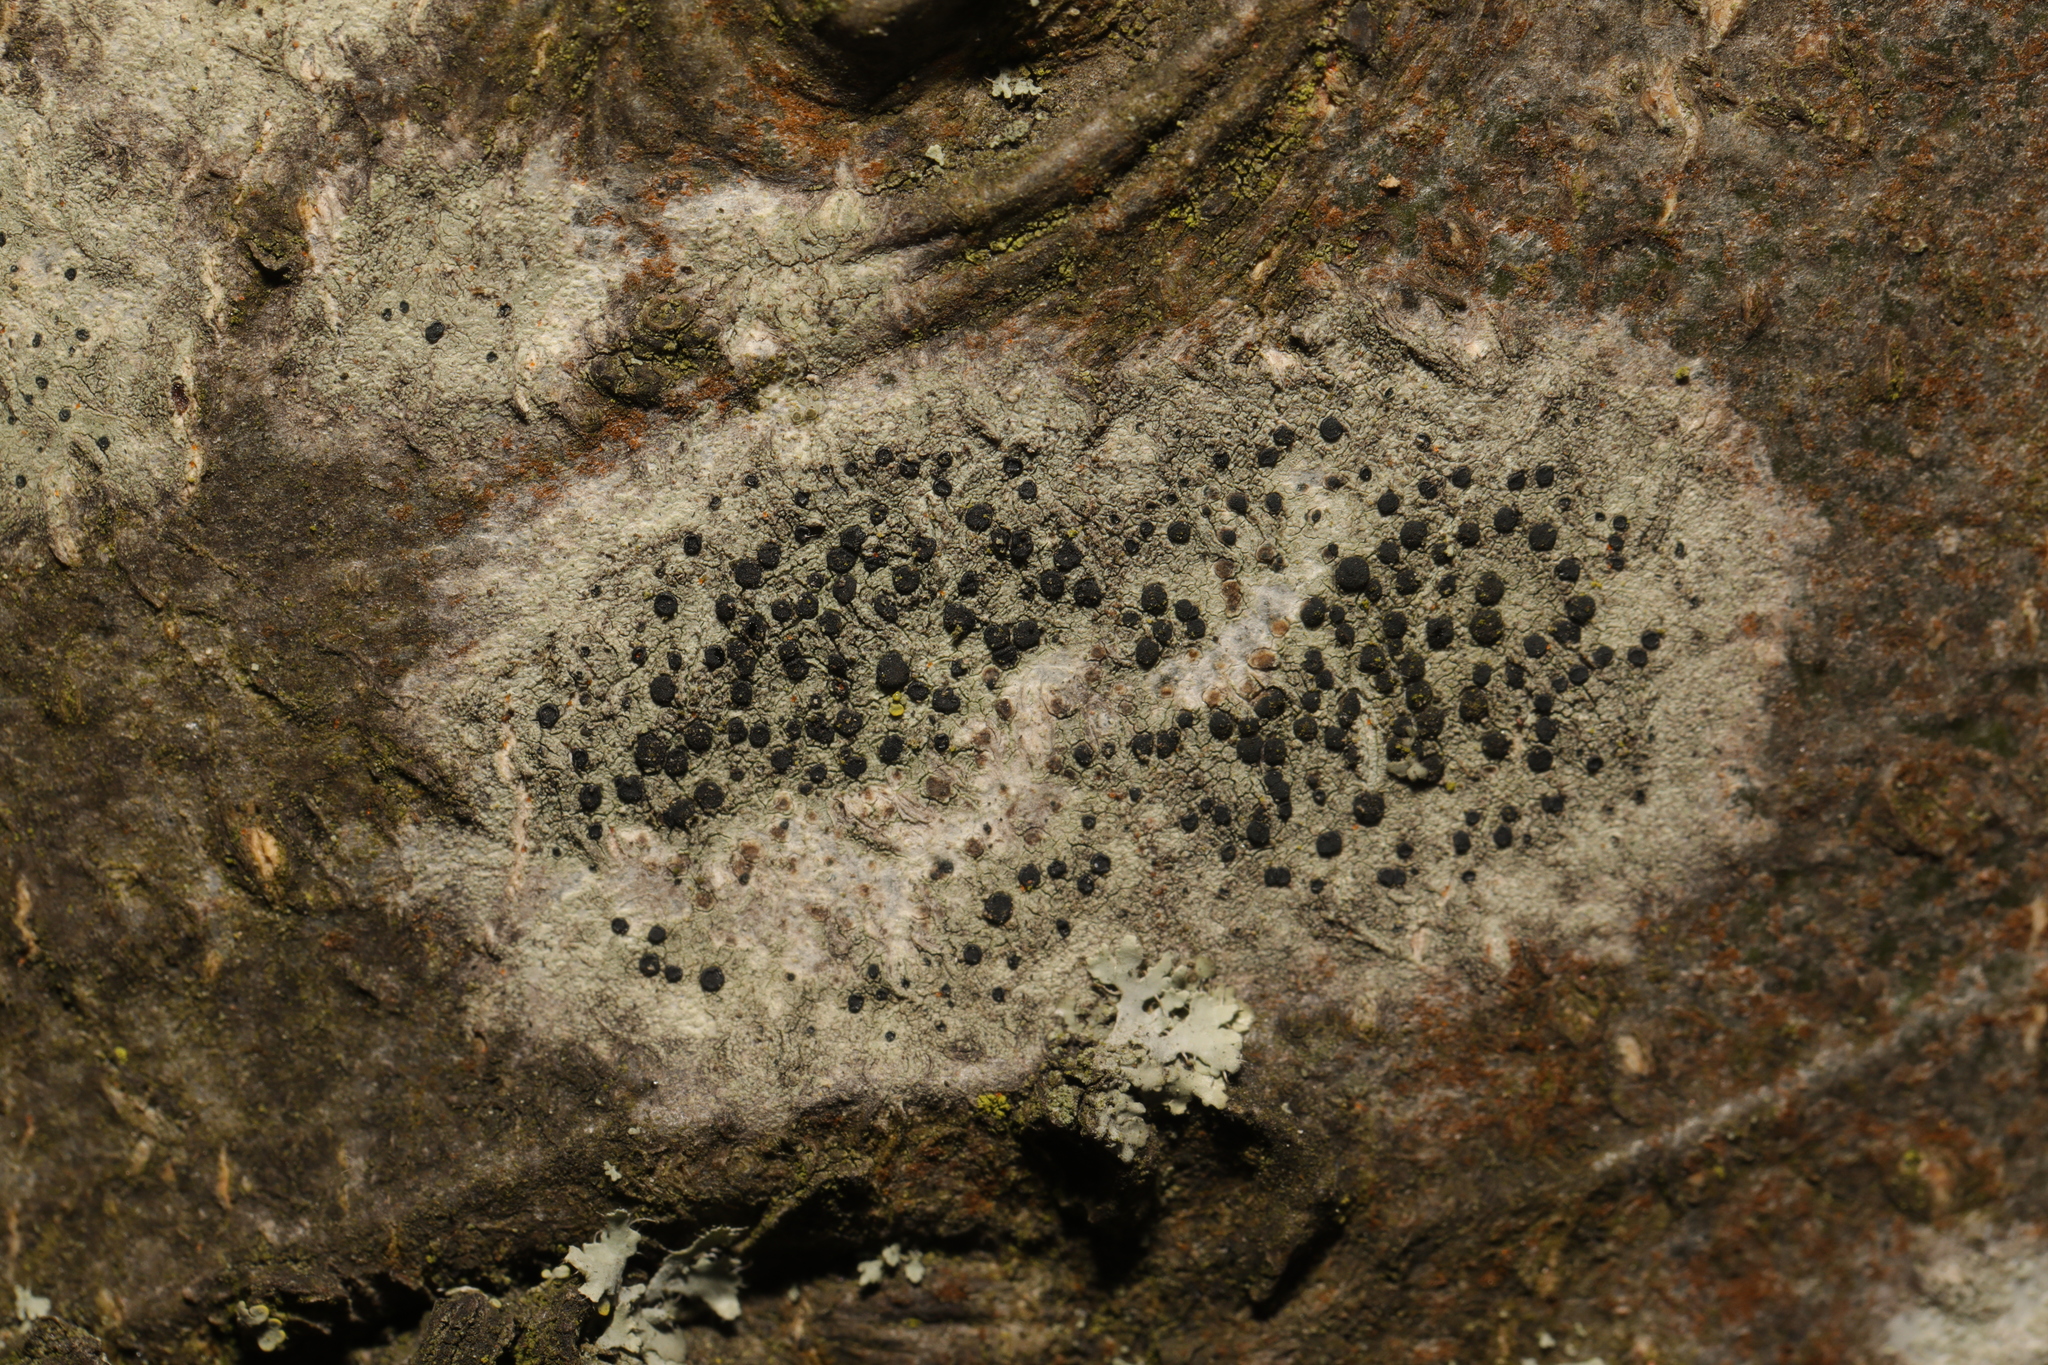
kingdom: Fungi
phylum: Ascomycota
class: Lecanoromycetes
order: Lecanorales
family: Lecanoraceae
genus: Lecidella
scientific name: Lecidella elaeochroma
